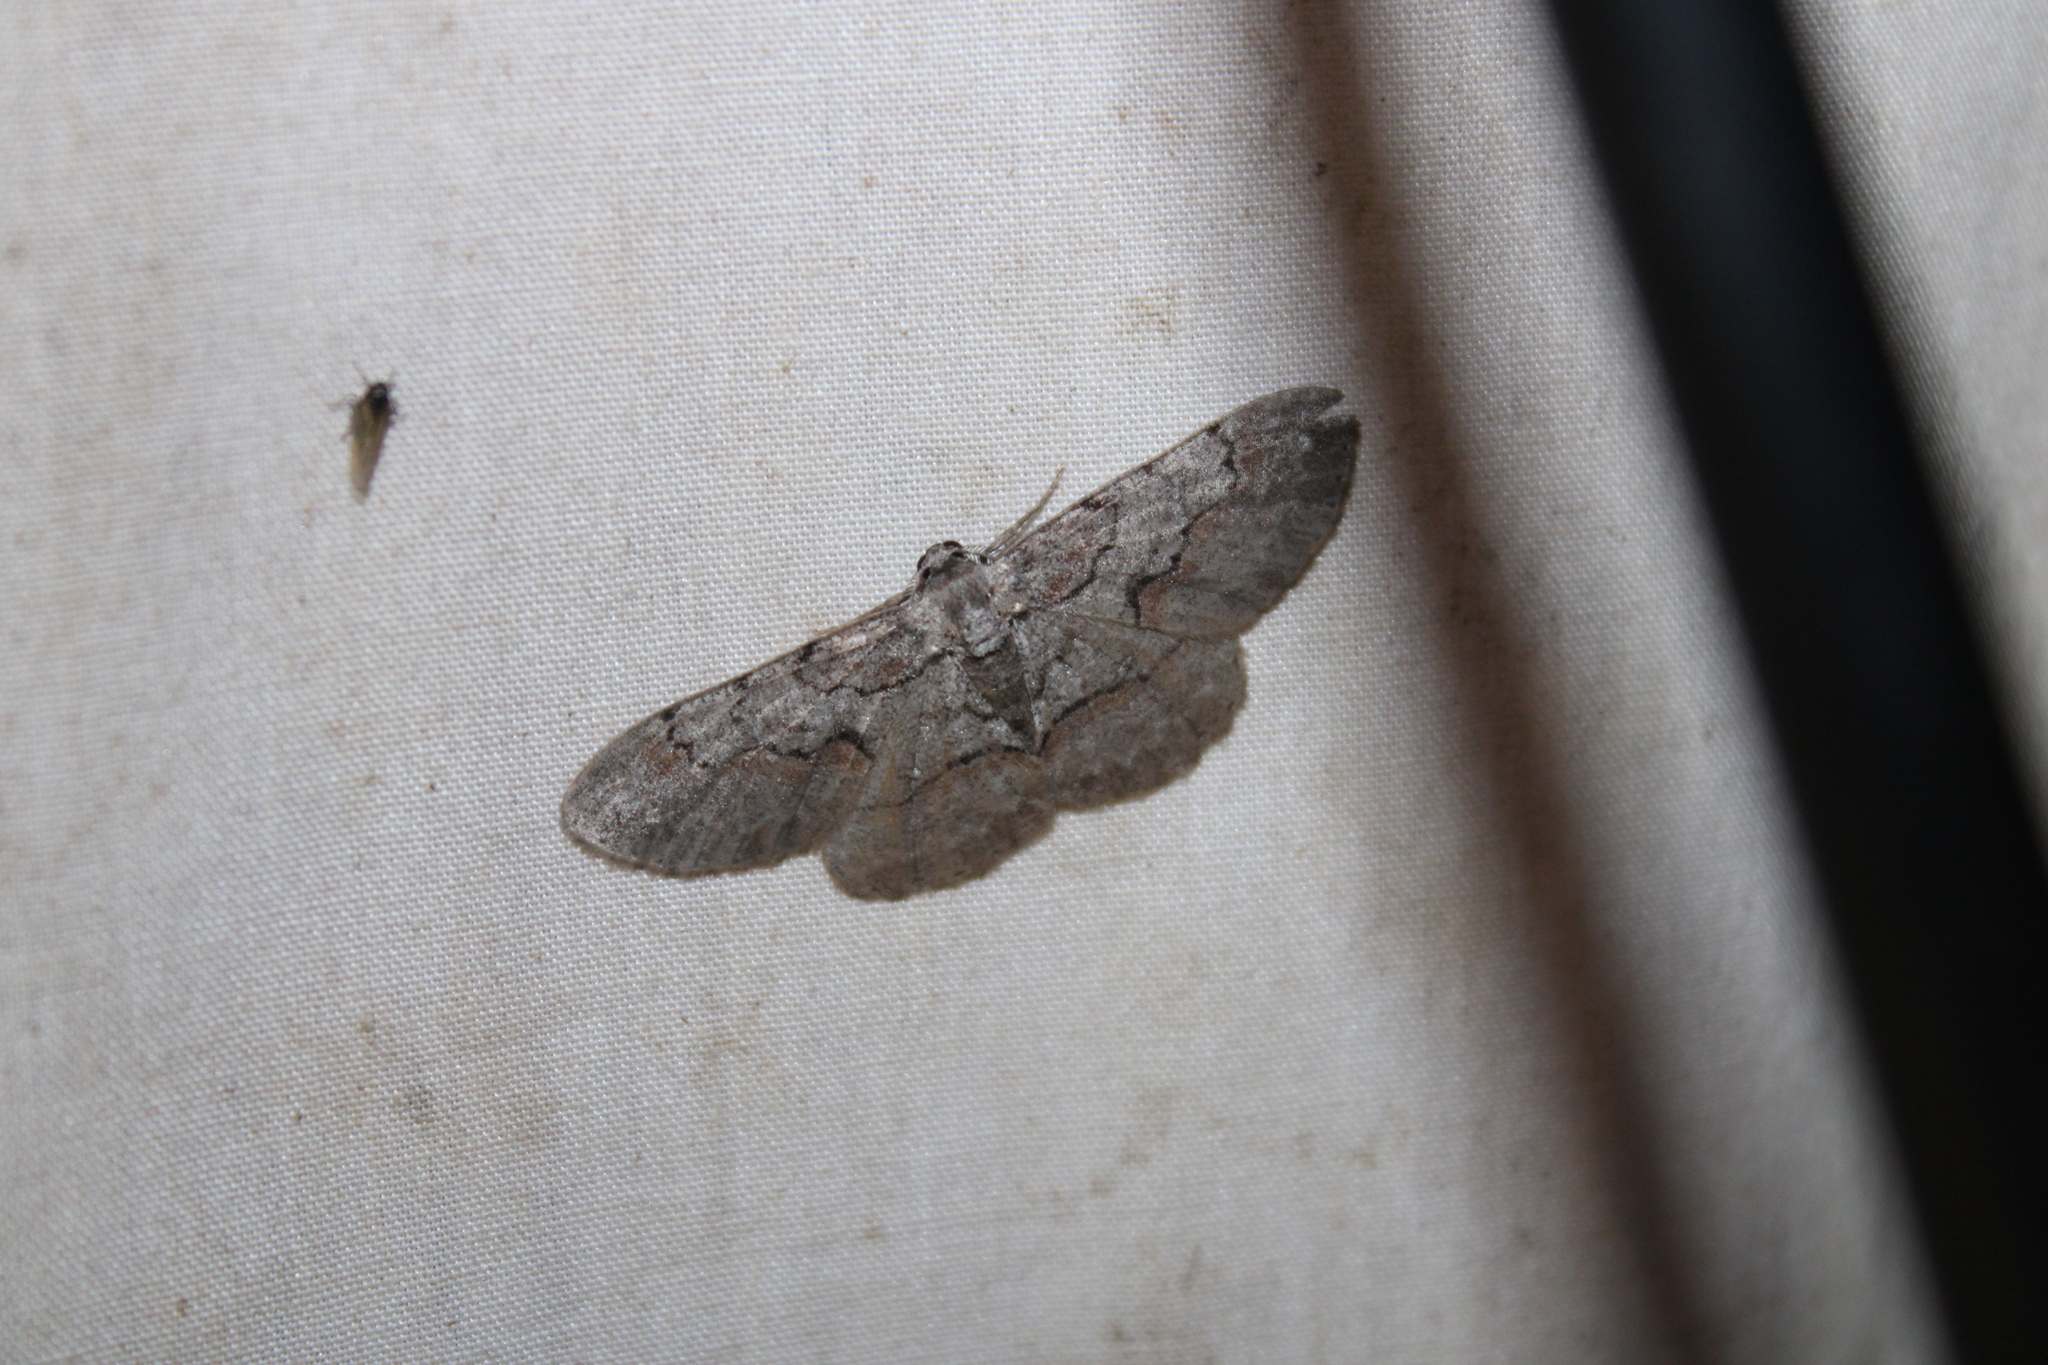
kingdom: Animalia
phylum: Arthropoda
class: Insecta
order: Lepidoptera
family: Geometridae
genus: Iridopsis
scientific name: Iridopsis vellivolata
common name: Large purplish gray
